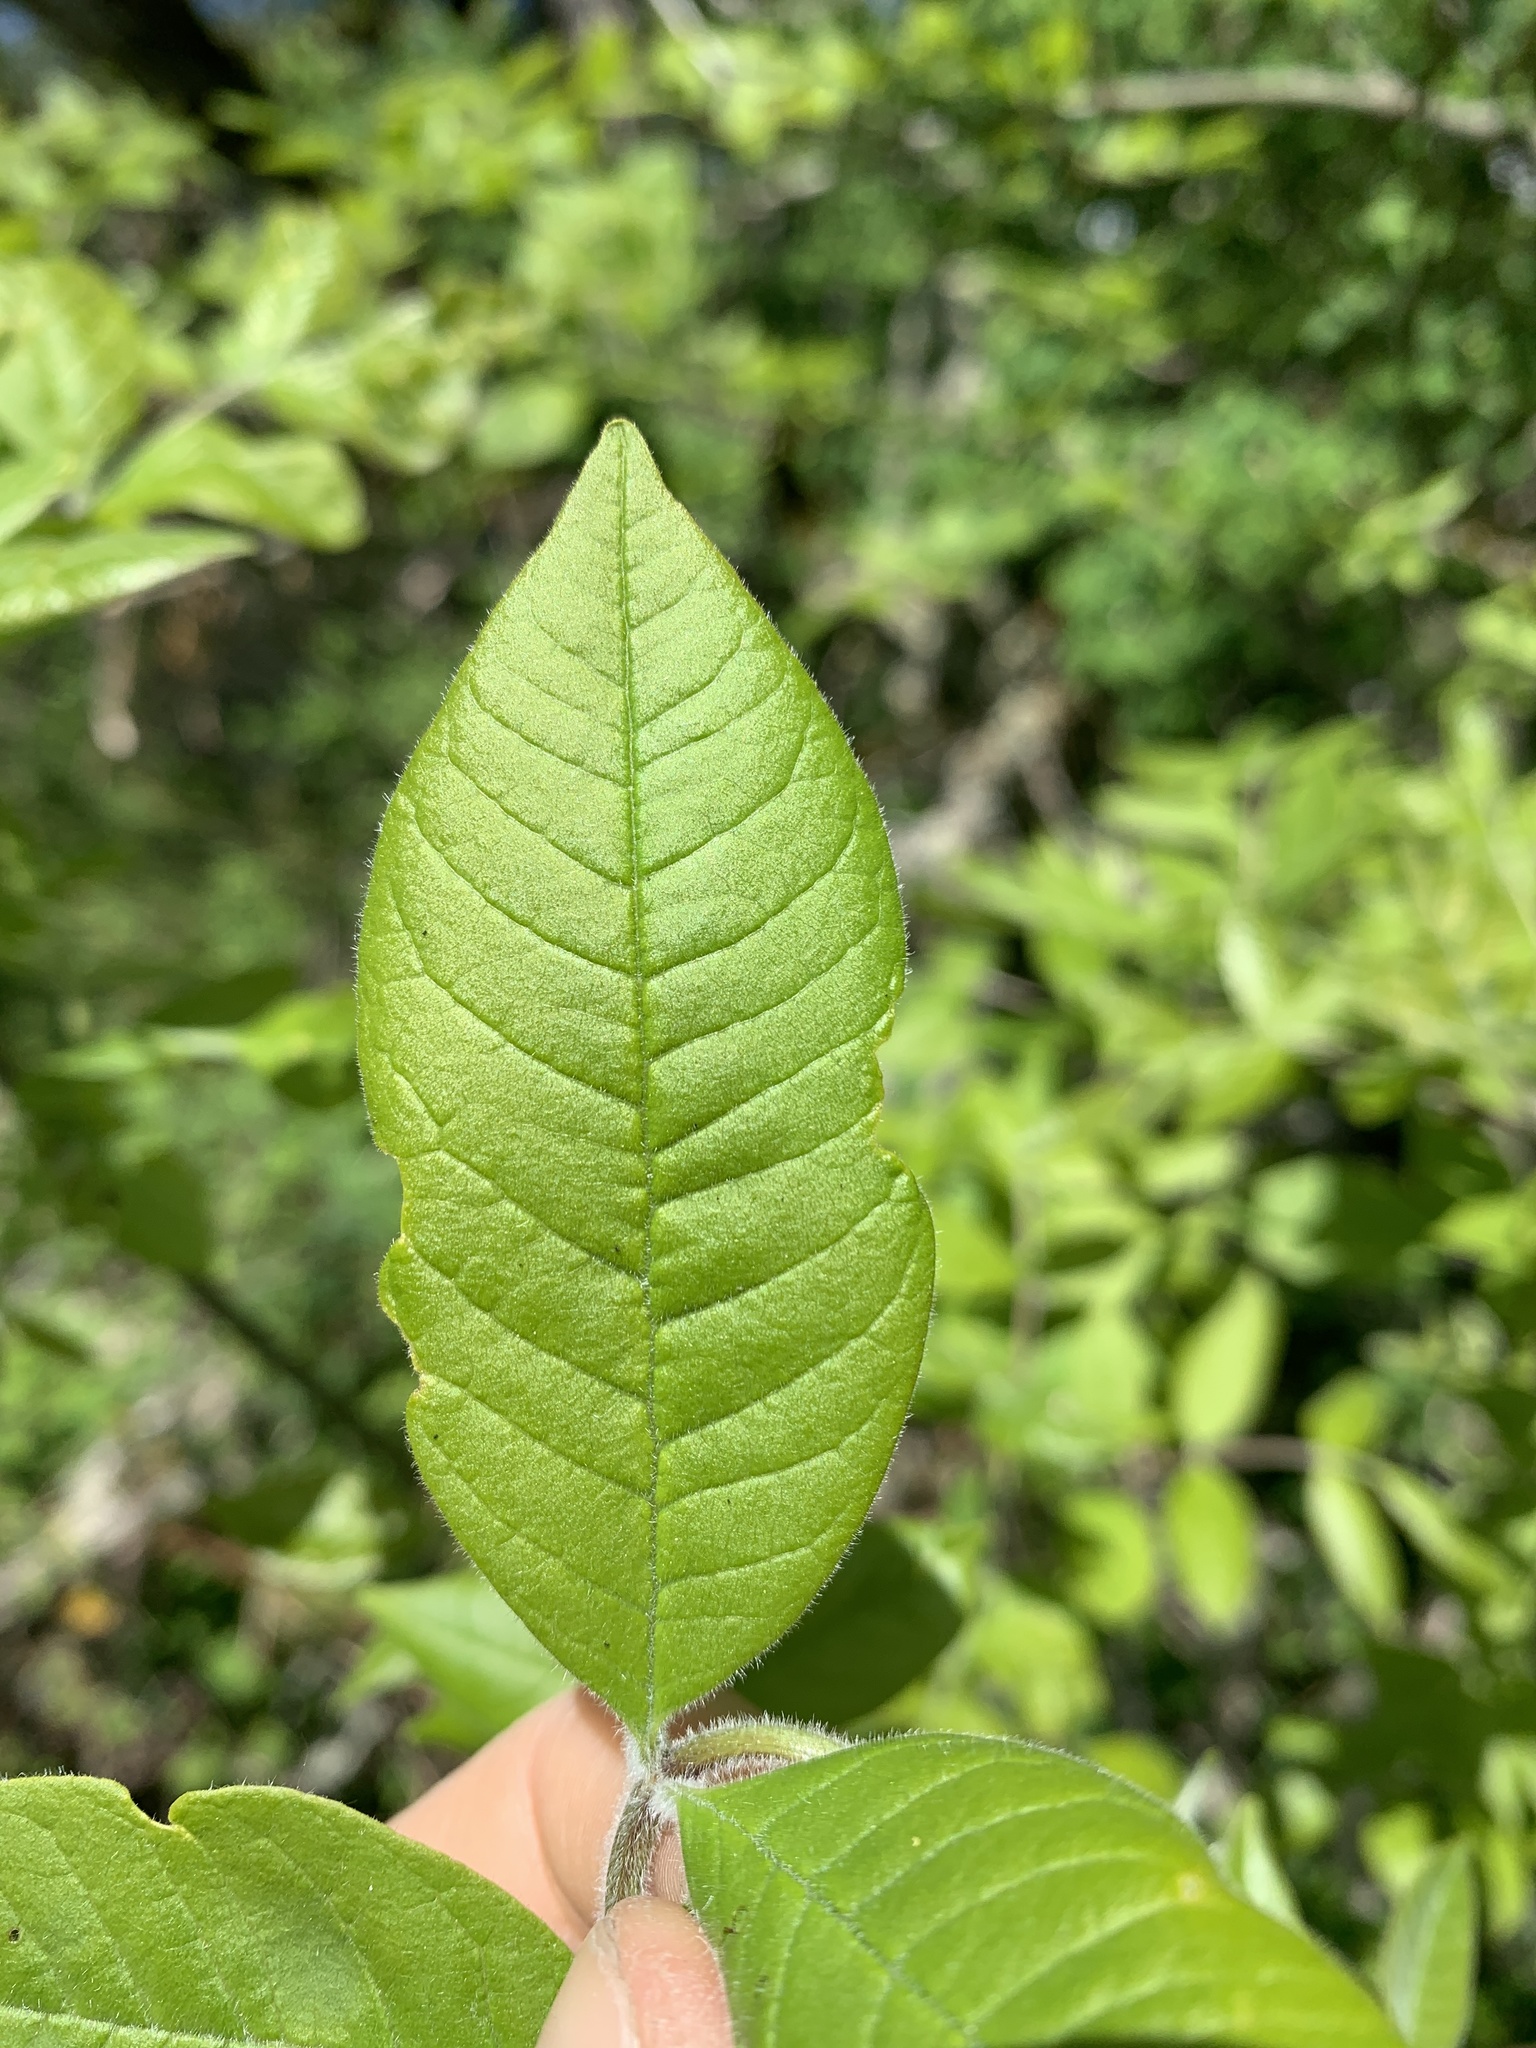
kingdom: Plantae
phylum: Tracheophyta
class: Magnoliopsida
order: Lamiales
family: Oleaceae
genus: Fraxinus
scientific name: Fraxinus latifolia
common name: Oregon ash
